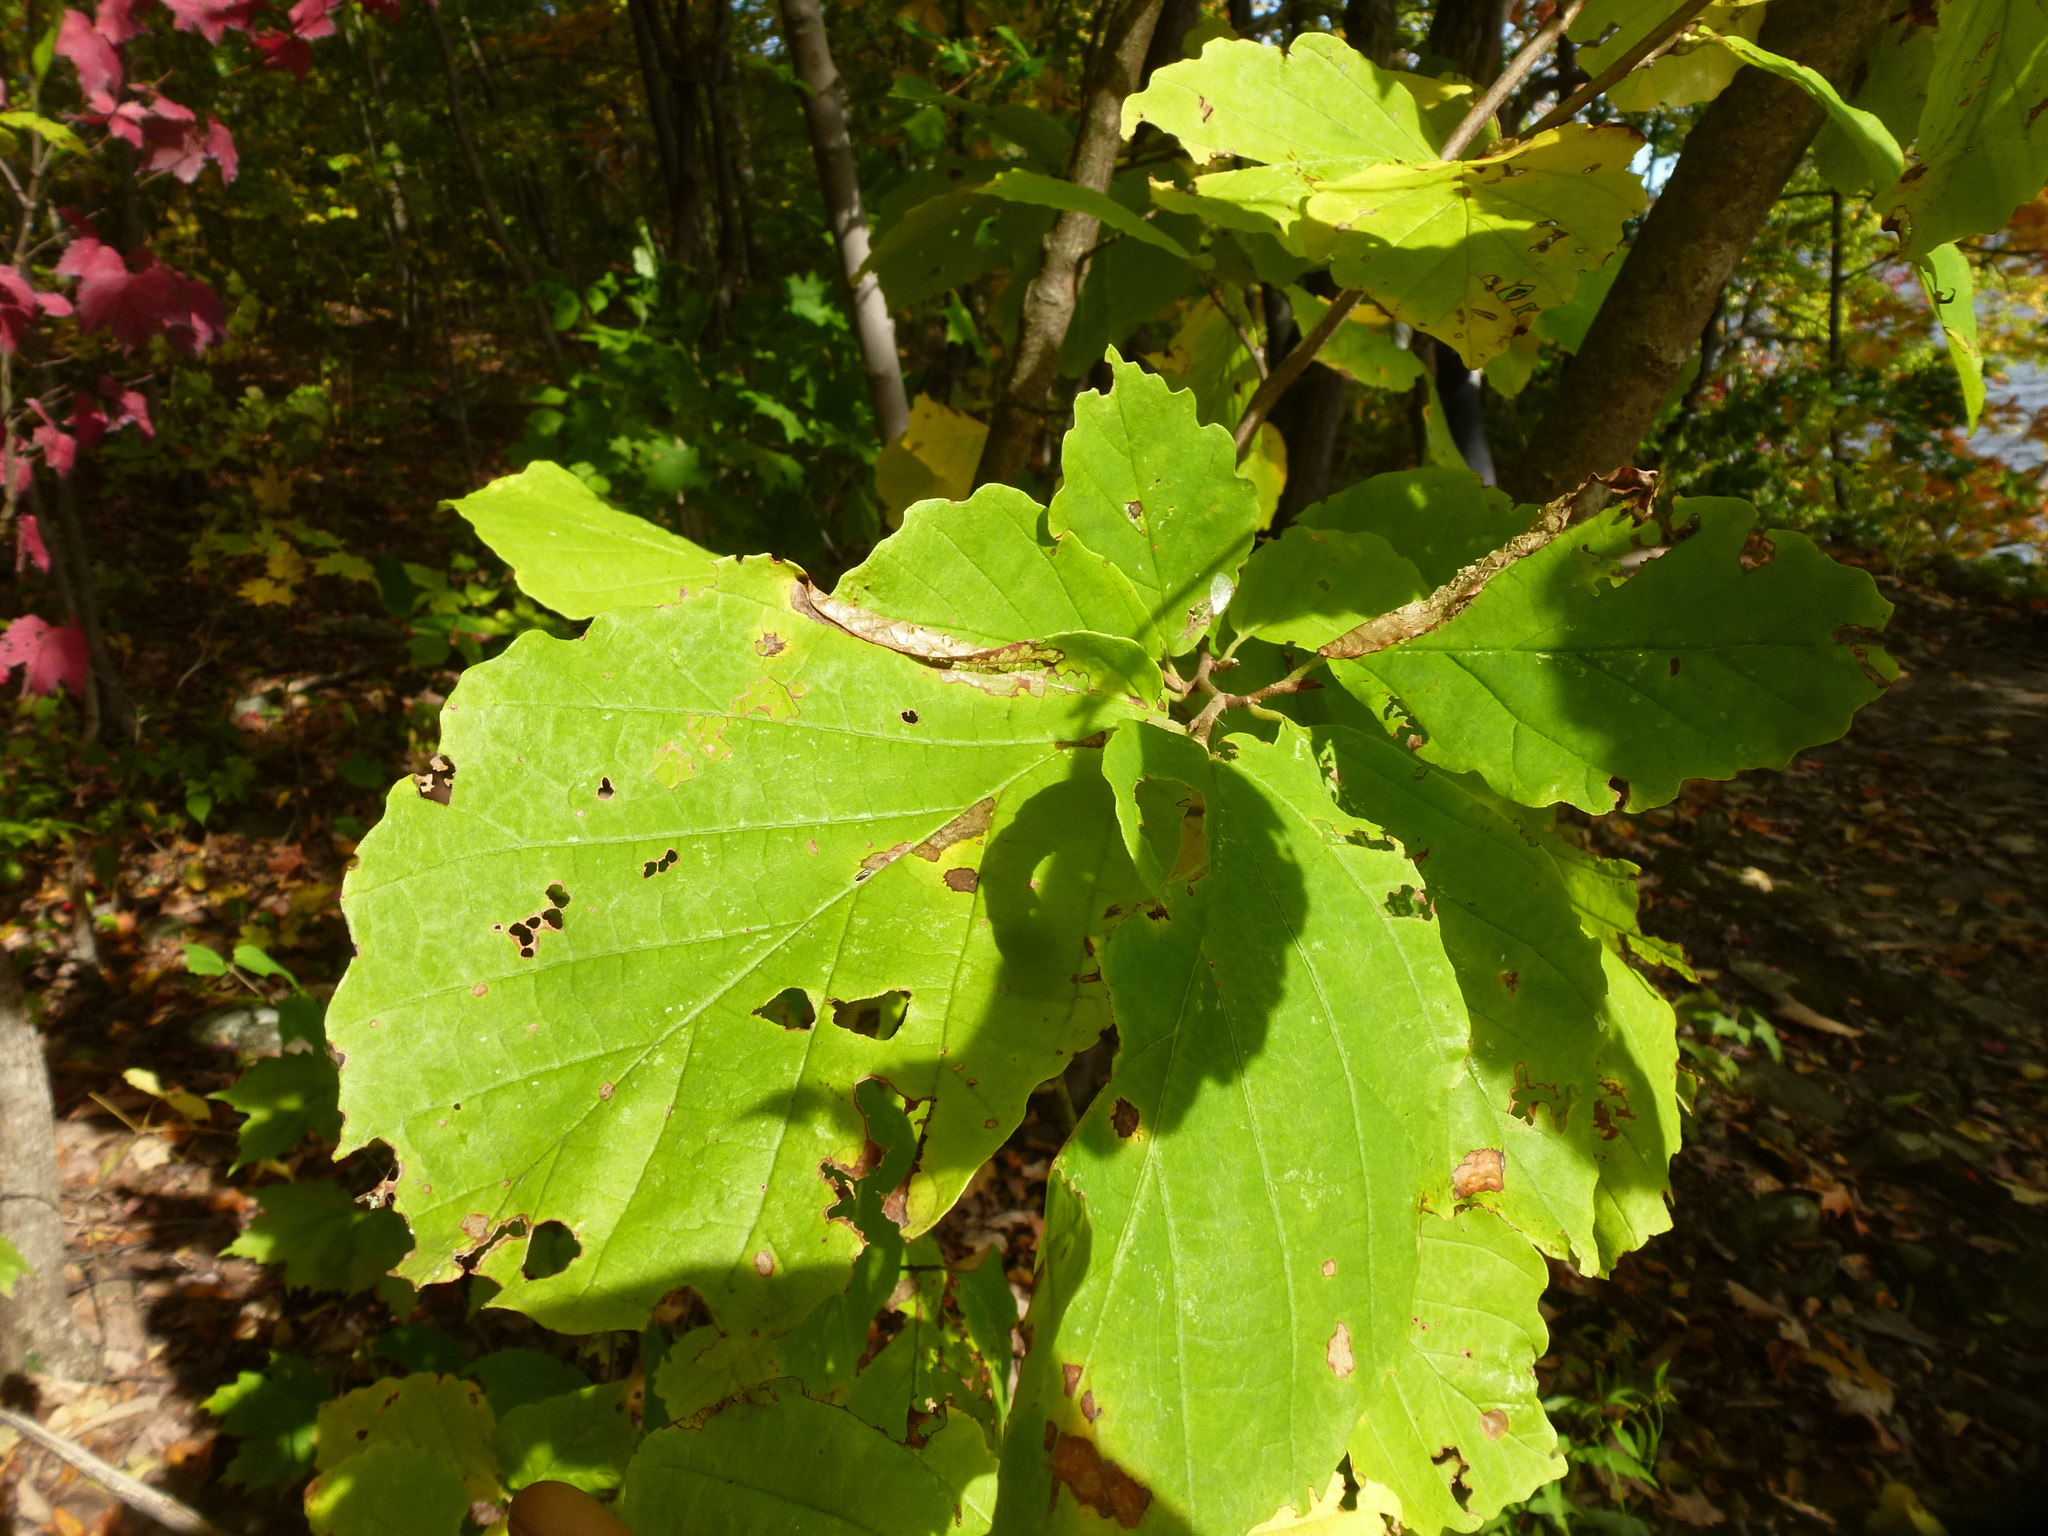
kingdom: Plantae
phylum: Tracheophyta
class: Magnoliopsida
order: Saxifragales
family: Hamamelidaceae
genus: Hamamelis
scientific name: Hamamelis virginiana
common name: Witch-hazel
